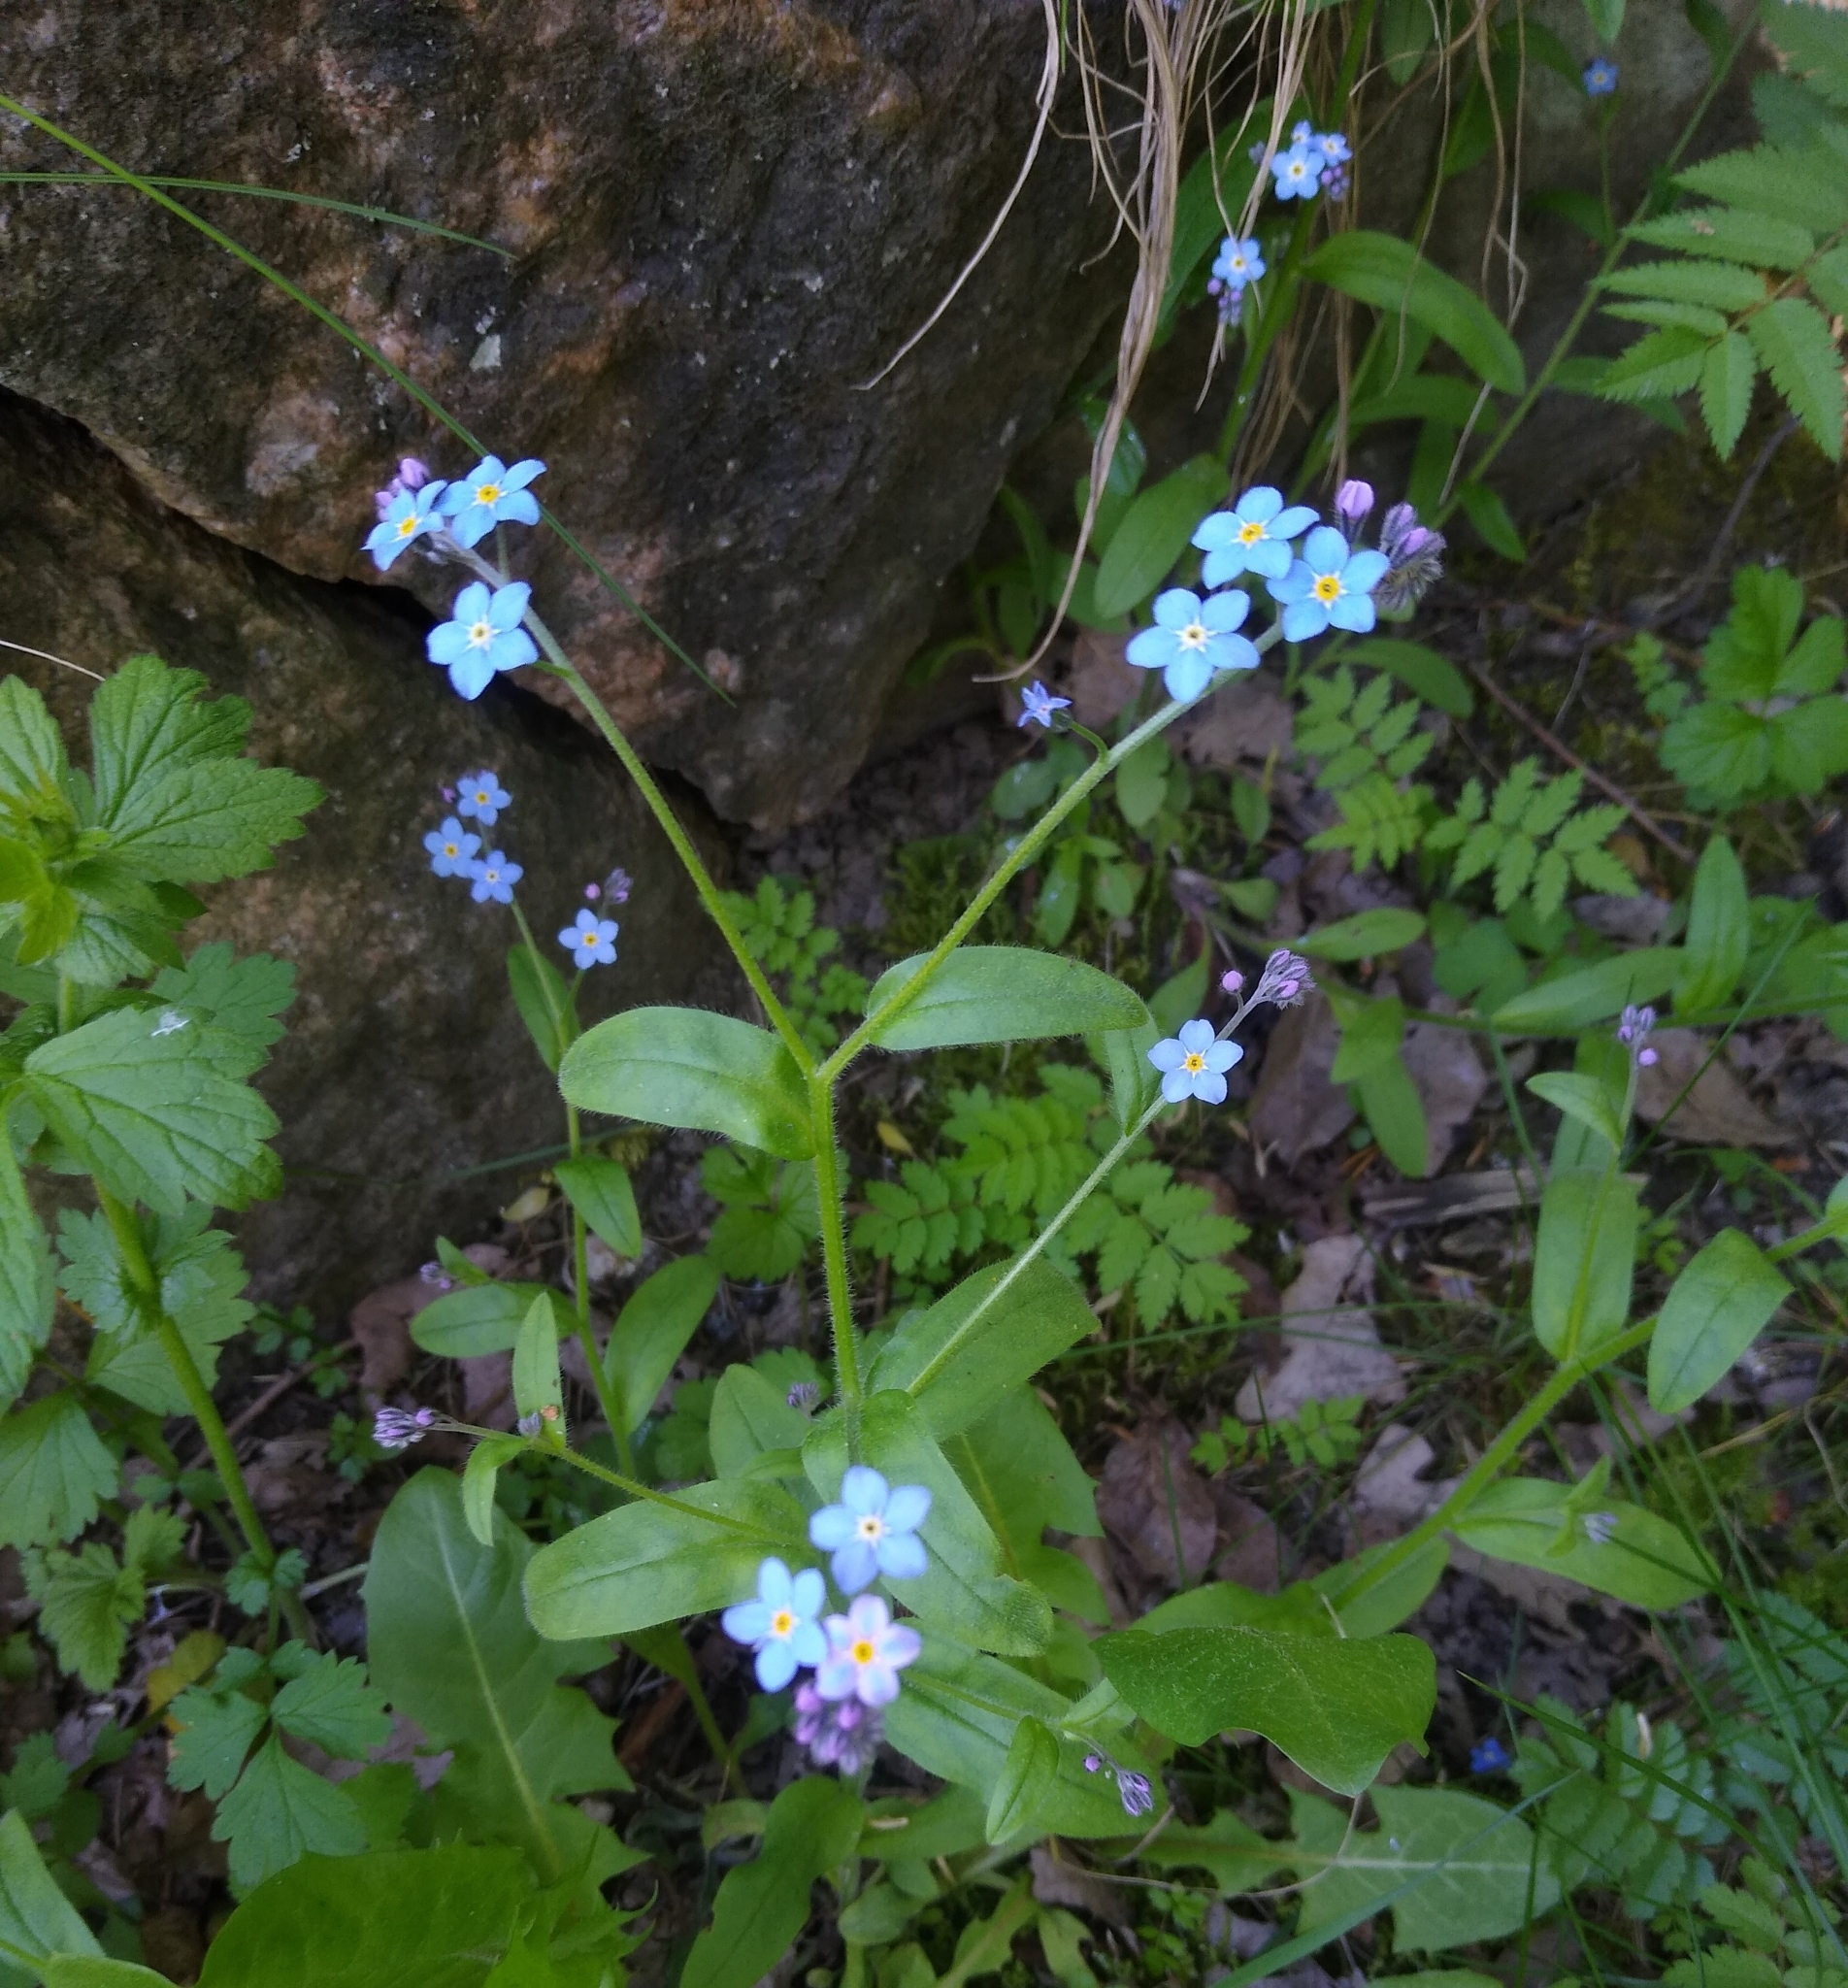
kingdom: Plantae
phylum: Tracheophyta
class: Magnoliopsida
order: Boraginales
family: Boraginaceae
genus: Myosotis
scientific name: Myosotis sylvatica
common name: Wood forget-me-not
